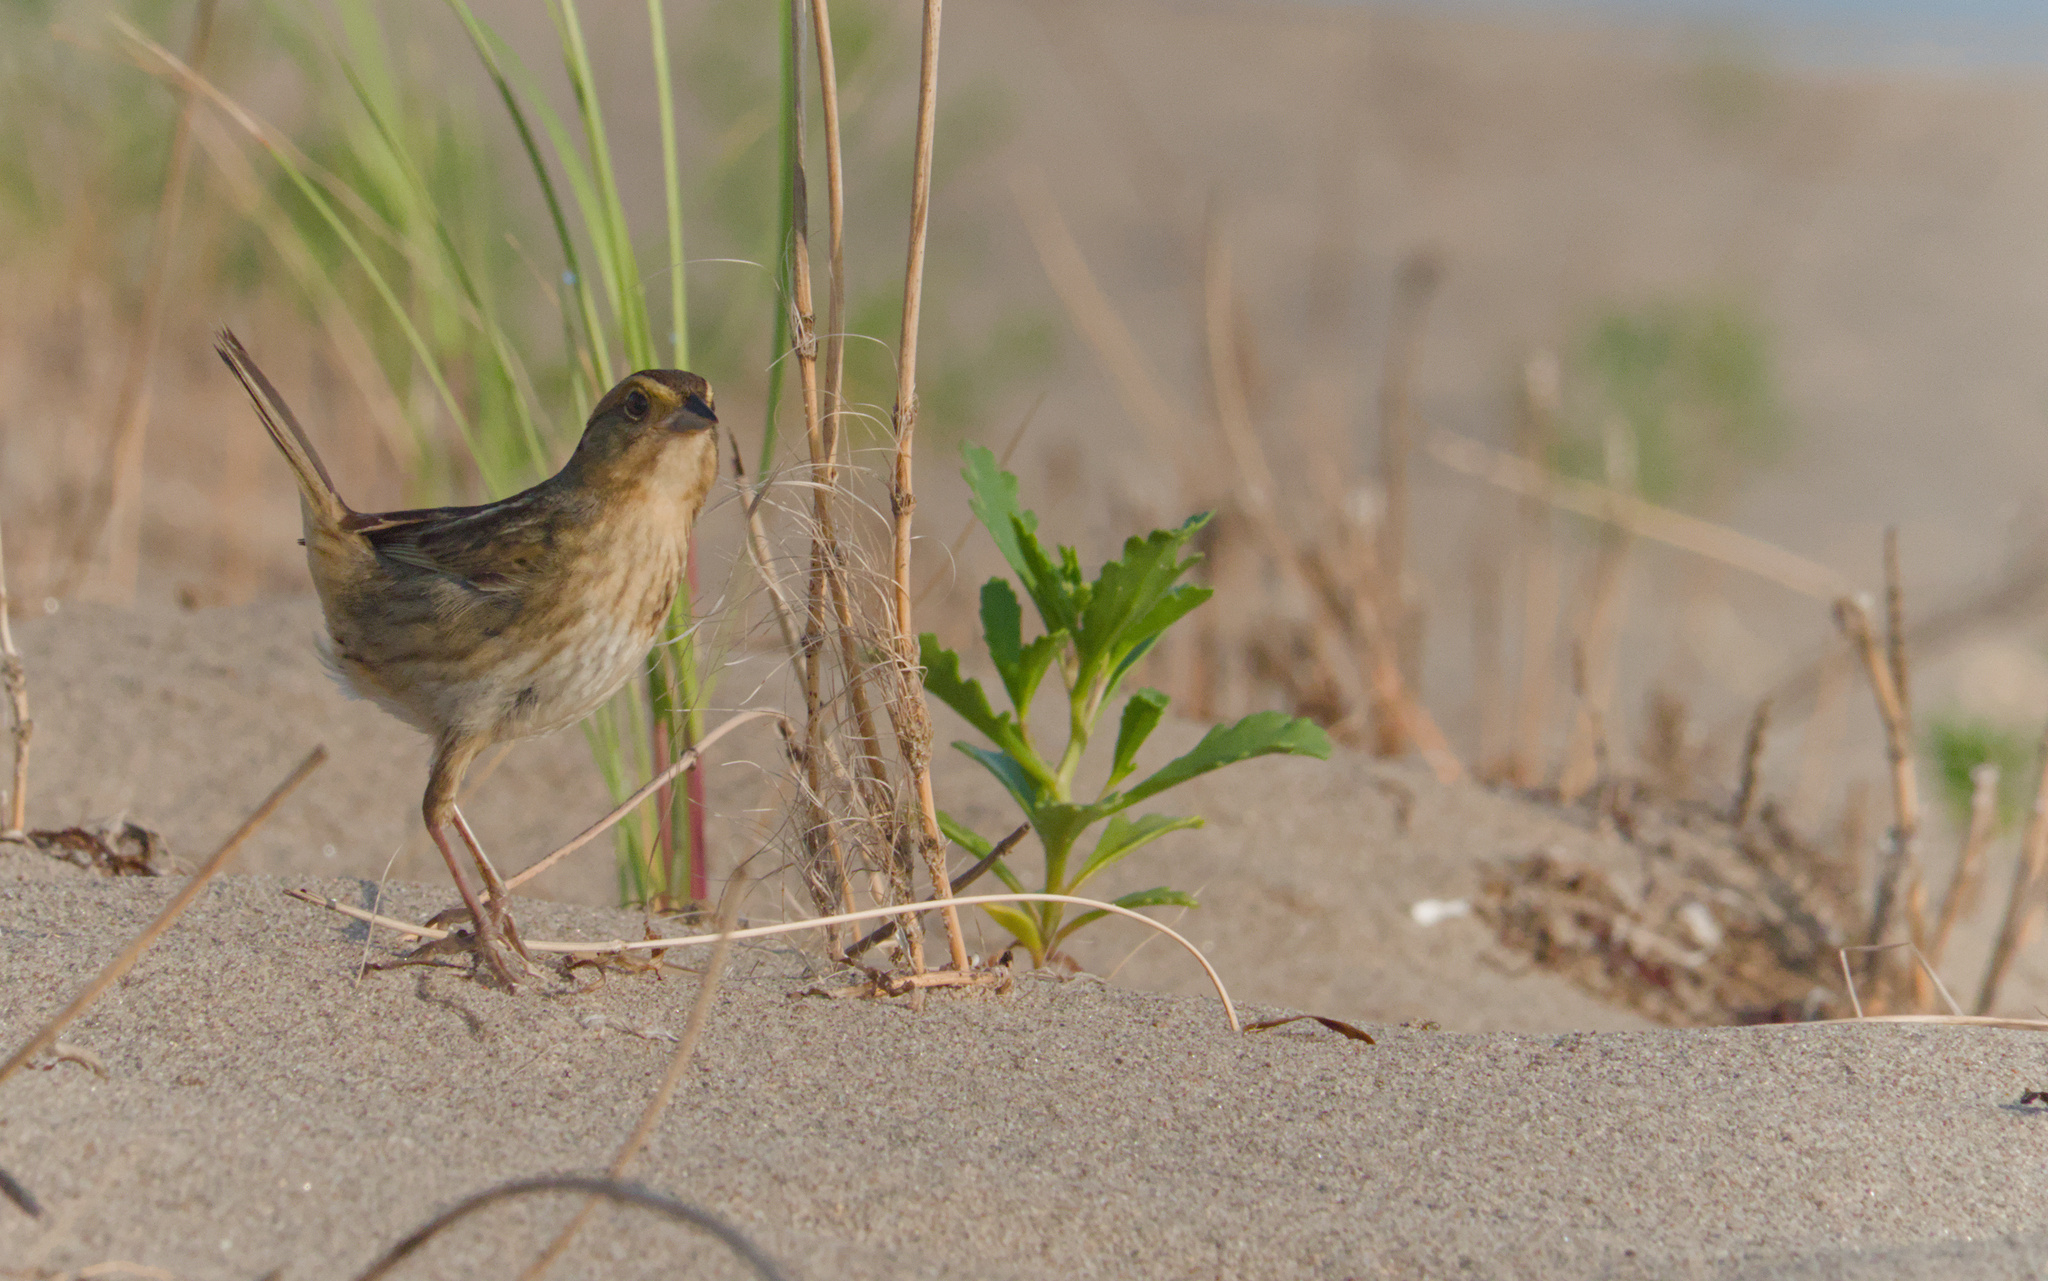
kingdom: Animalia
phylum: Chordata
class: Aves
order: Passeriformes
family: Passerellidae
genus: Ammospiza
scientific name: Ammospiza nelsoni
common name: Nelson's sparrow
